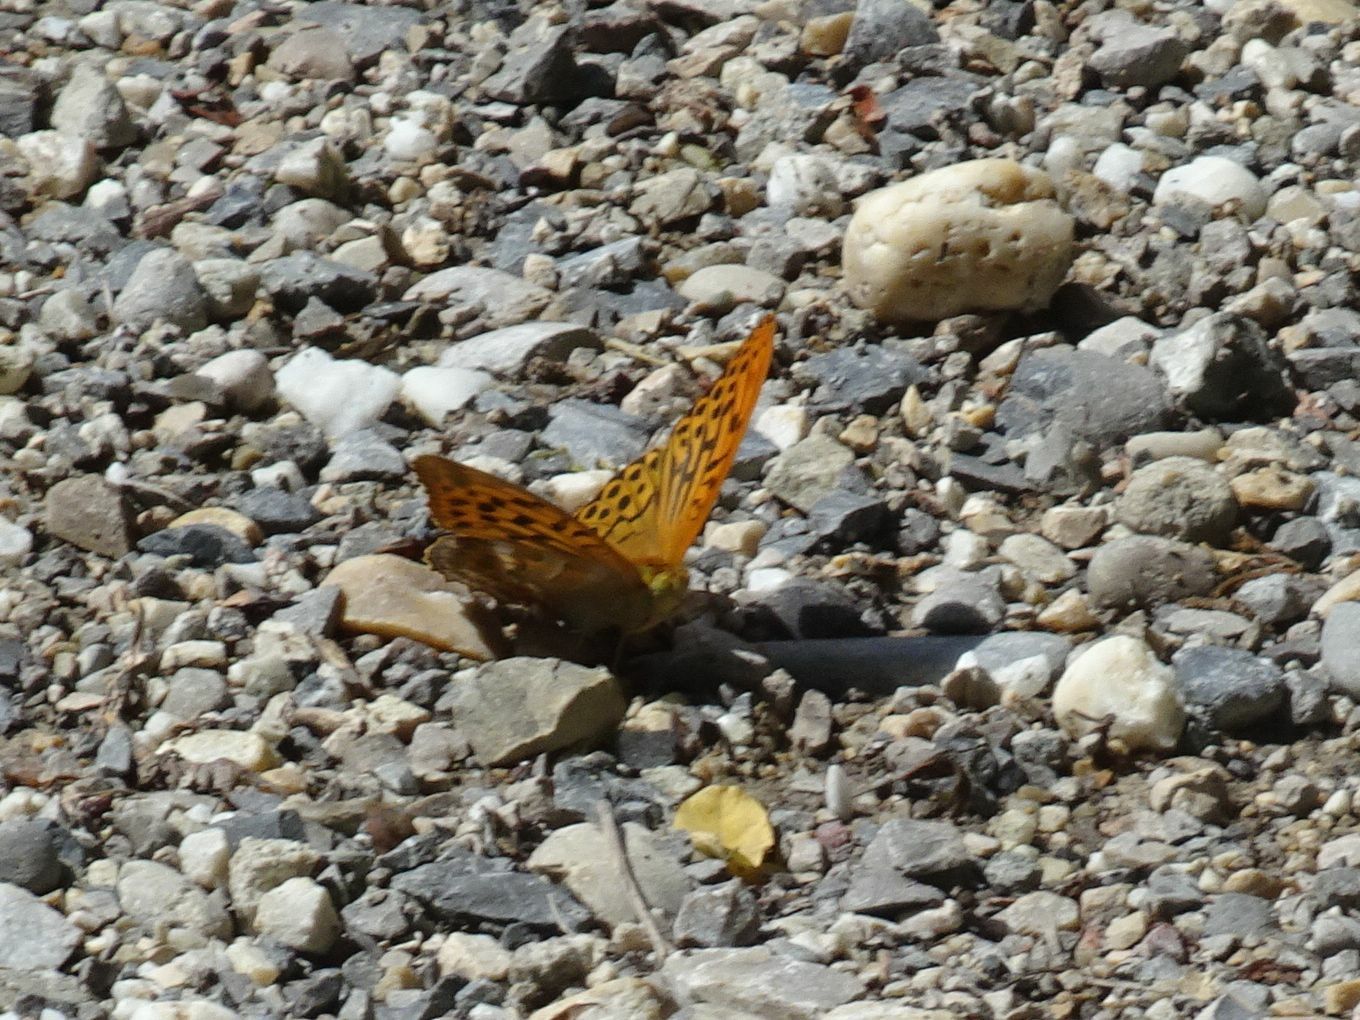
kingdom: Animalia
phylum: Arthropoda
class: Insecta
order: Lepidoptera
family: Nymphalidae
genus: Argynnis
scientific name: Argynnis paphia
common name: Silver-washed fritillary
